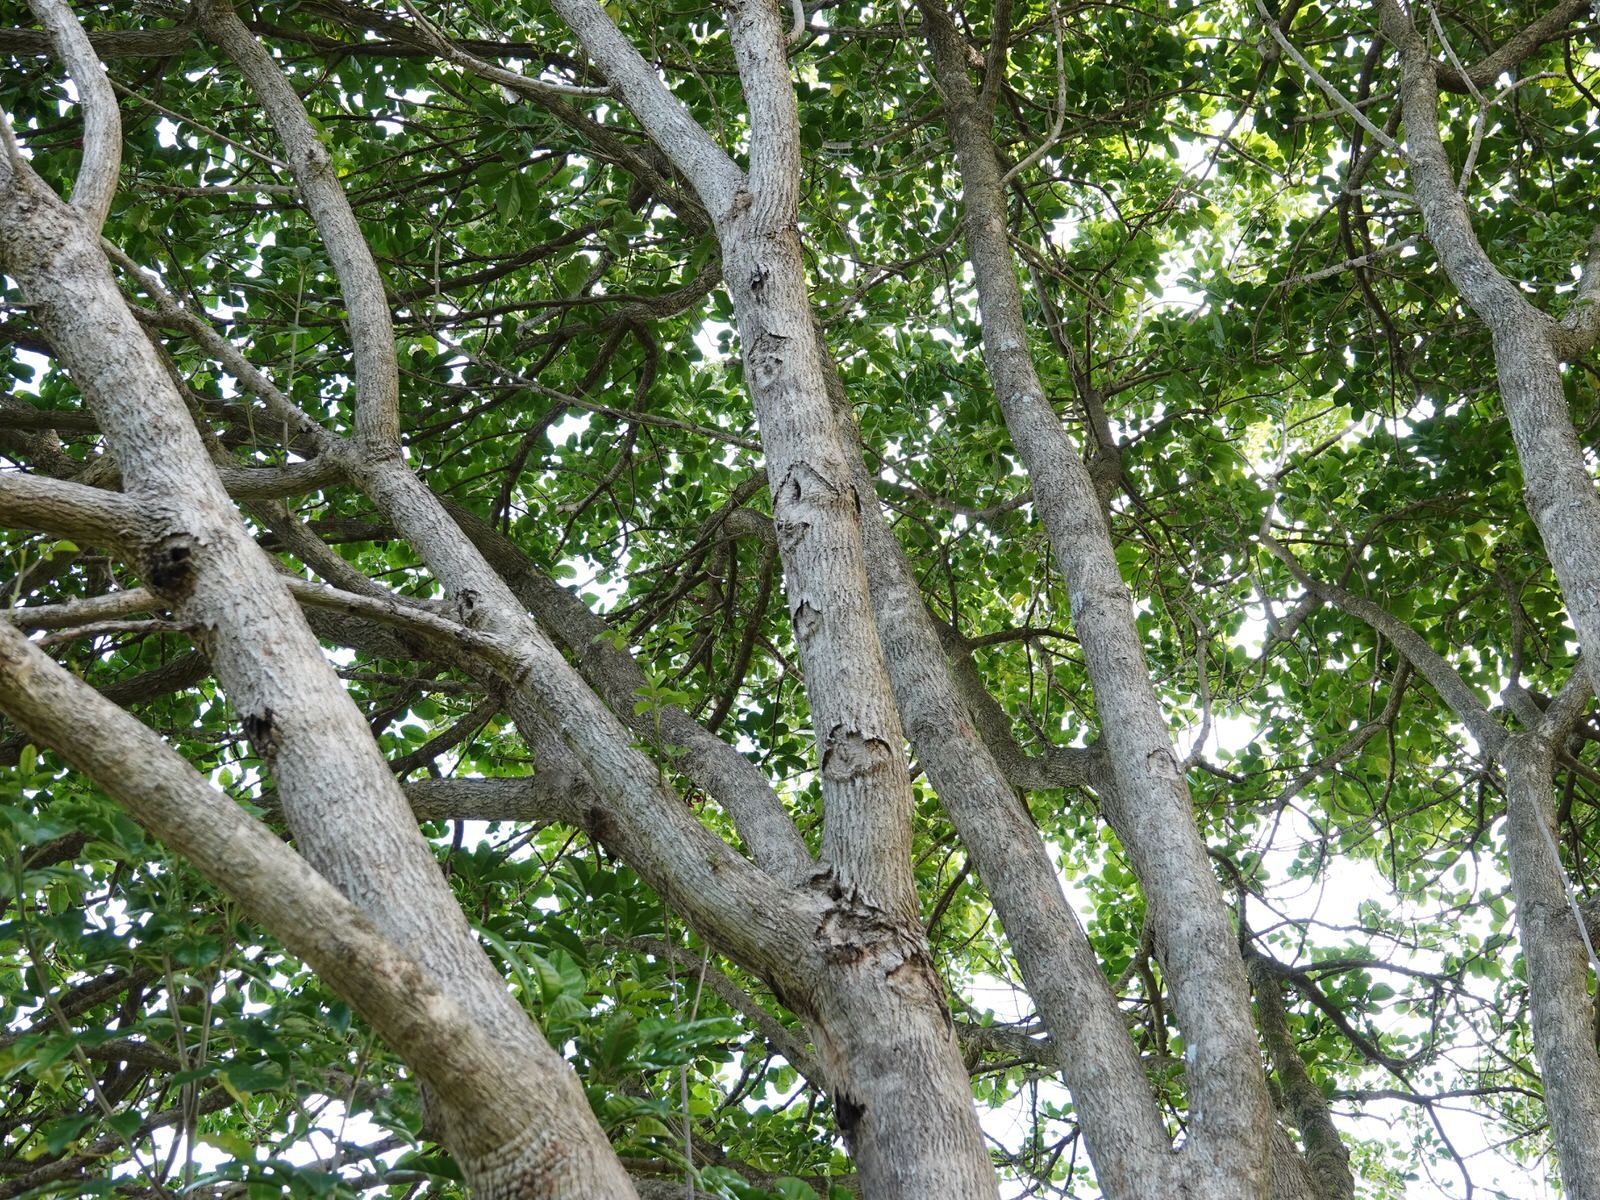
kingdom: Animalia
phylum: Arthropoda
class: Insecta
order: Lepidoptera
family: Hepialidae
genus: Aenetus
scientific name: Aenetus virescens
